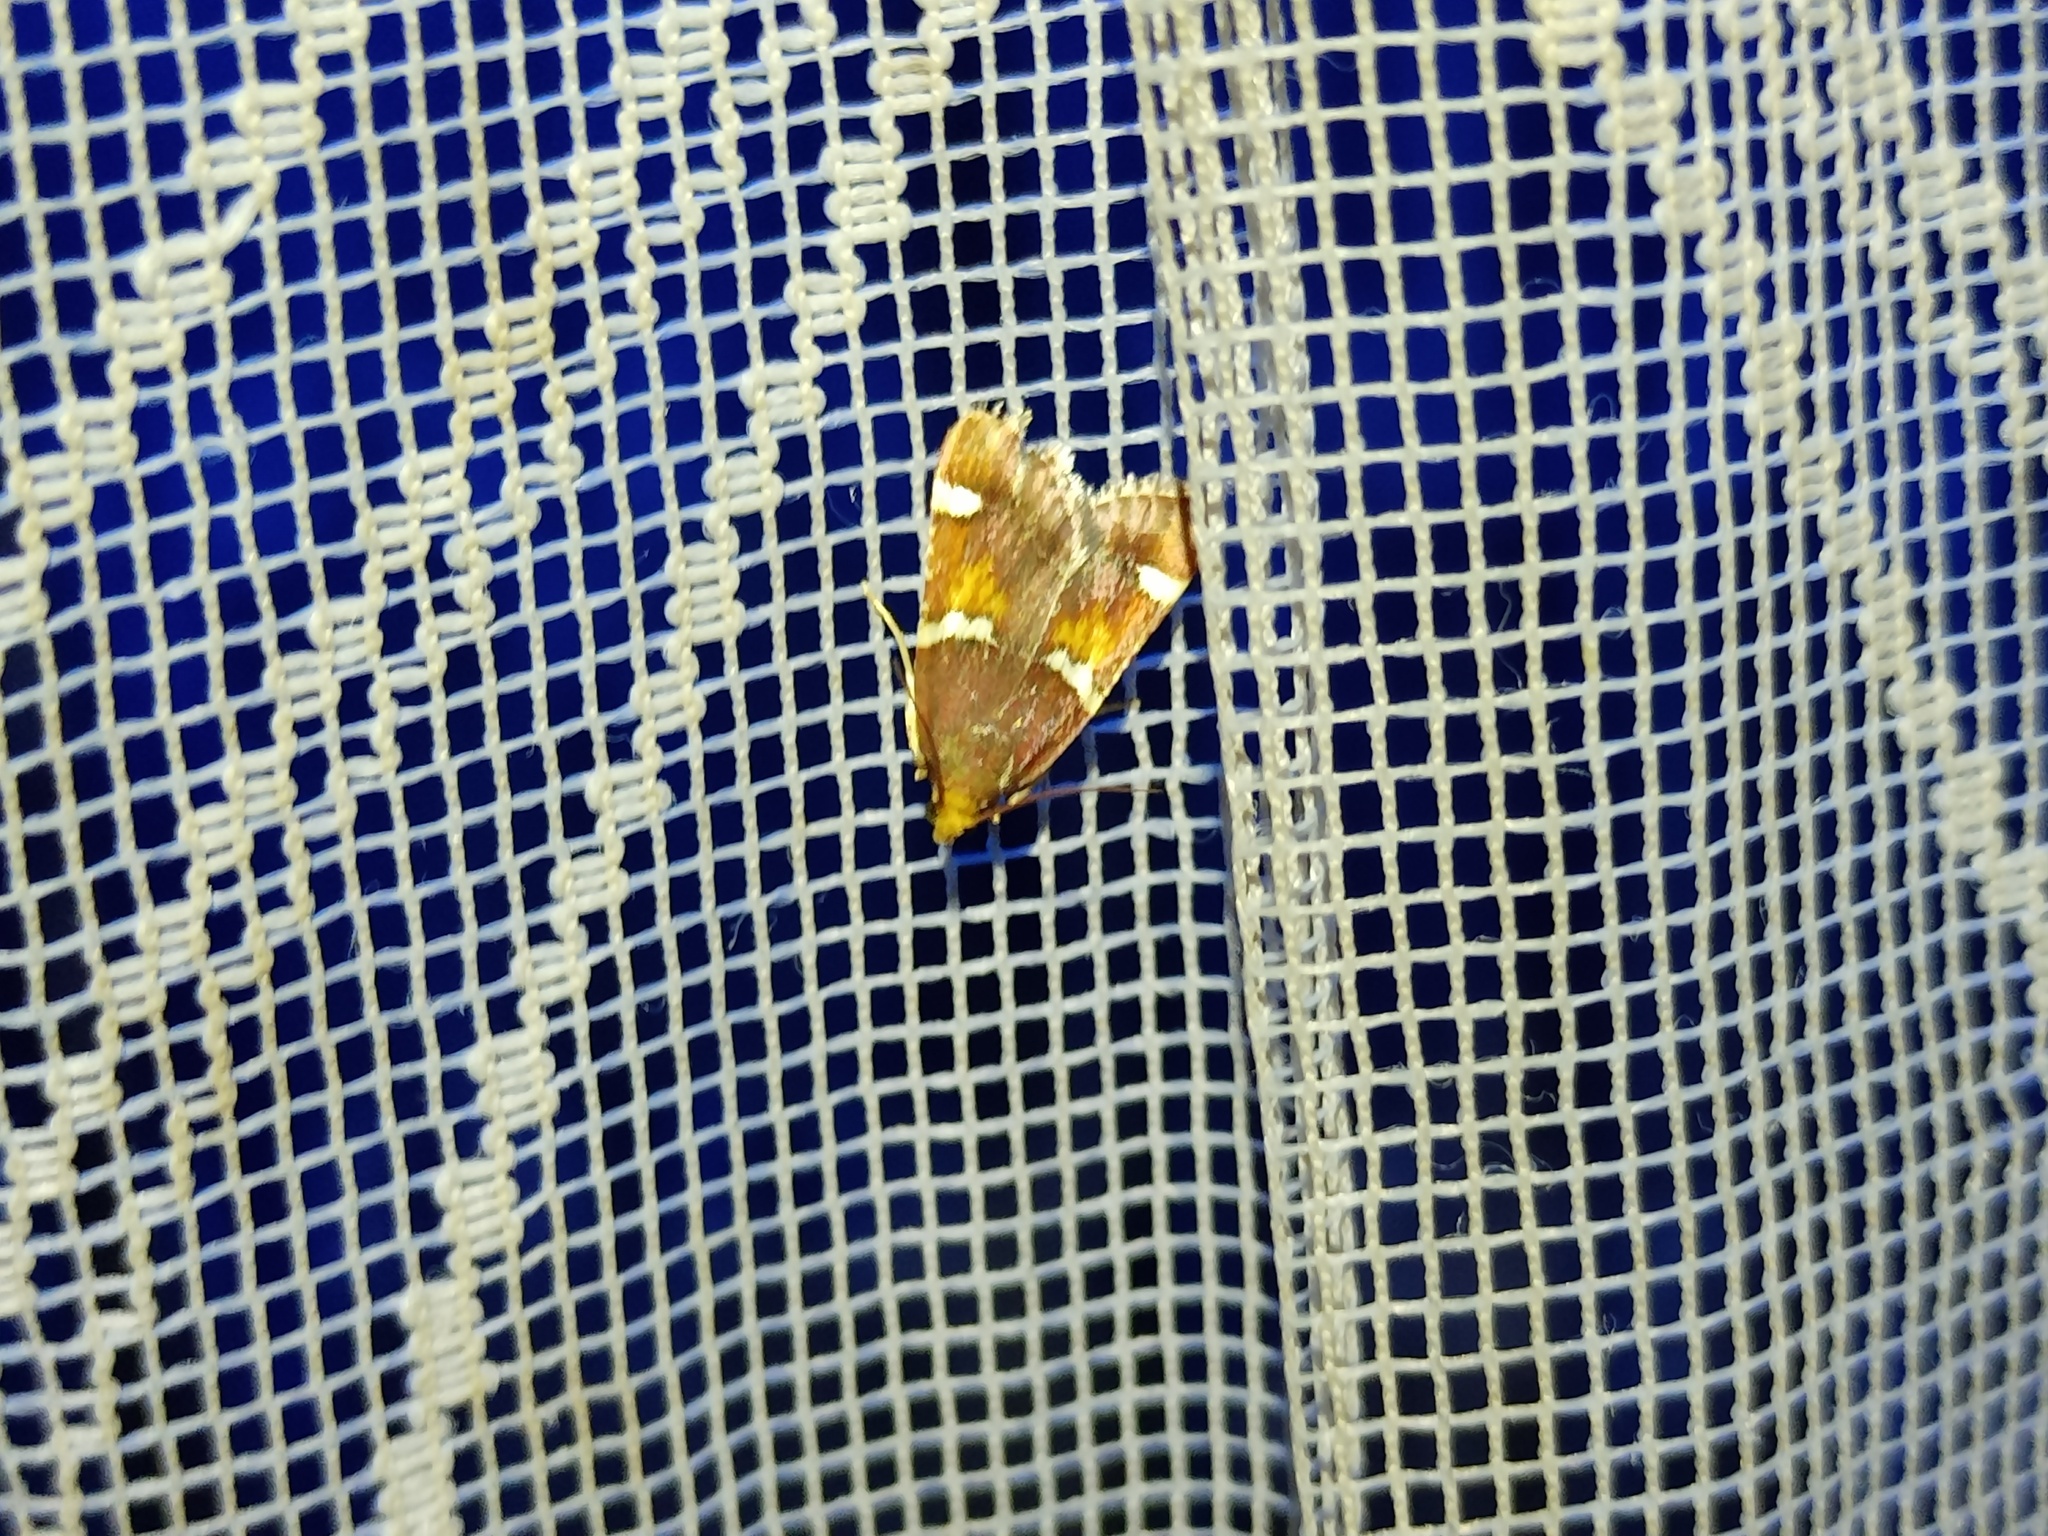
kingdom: Animalia
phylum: Arthropoda
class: Insecta
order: Lepidoptera
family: Pyralidae
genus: Pyralis
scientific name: Pyralis regalis
